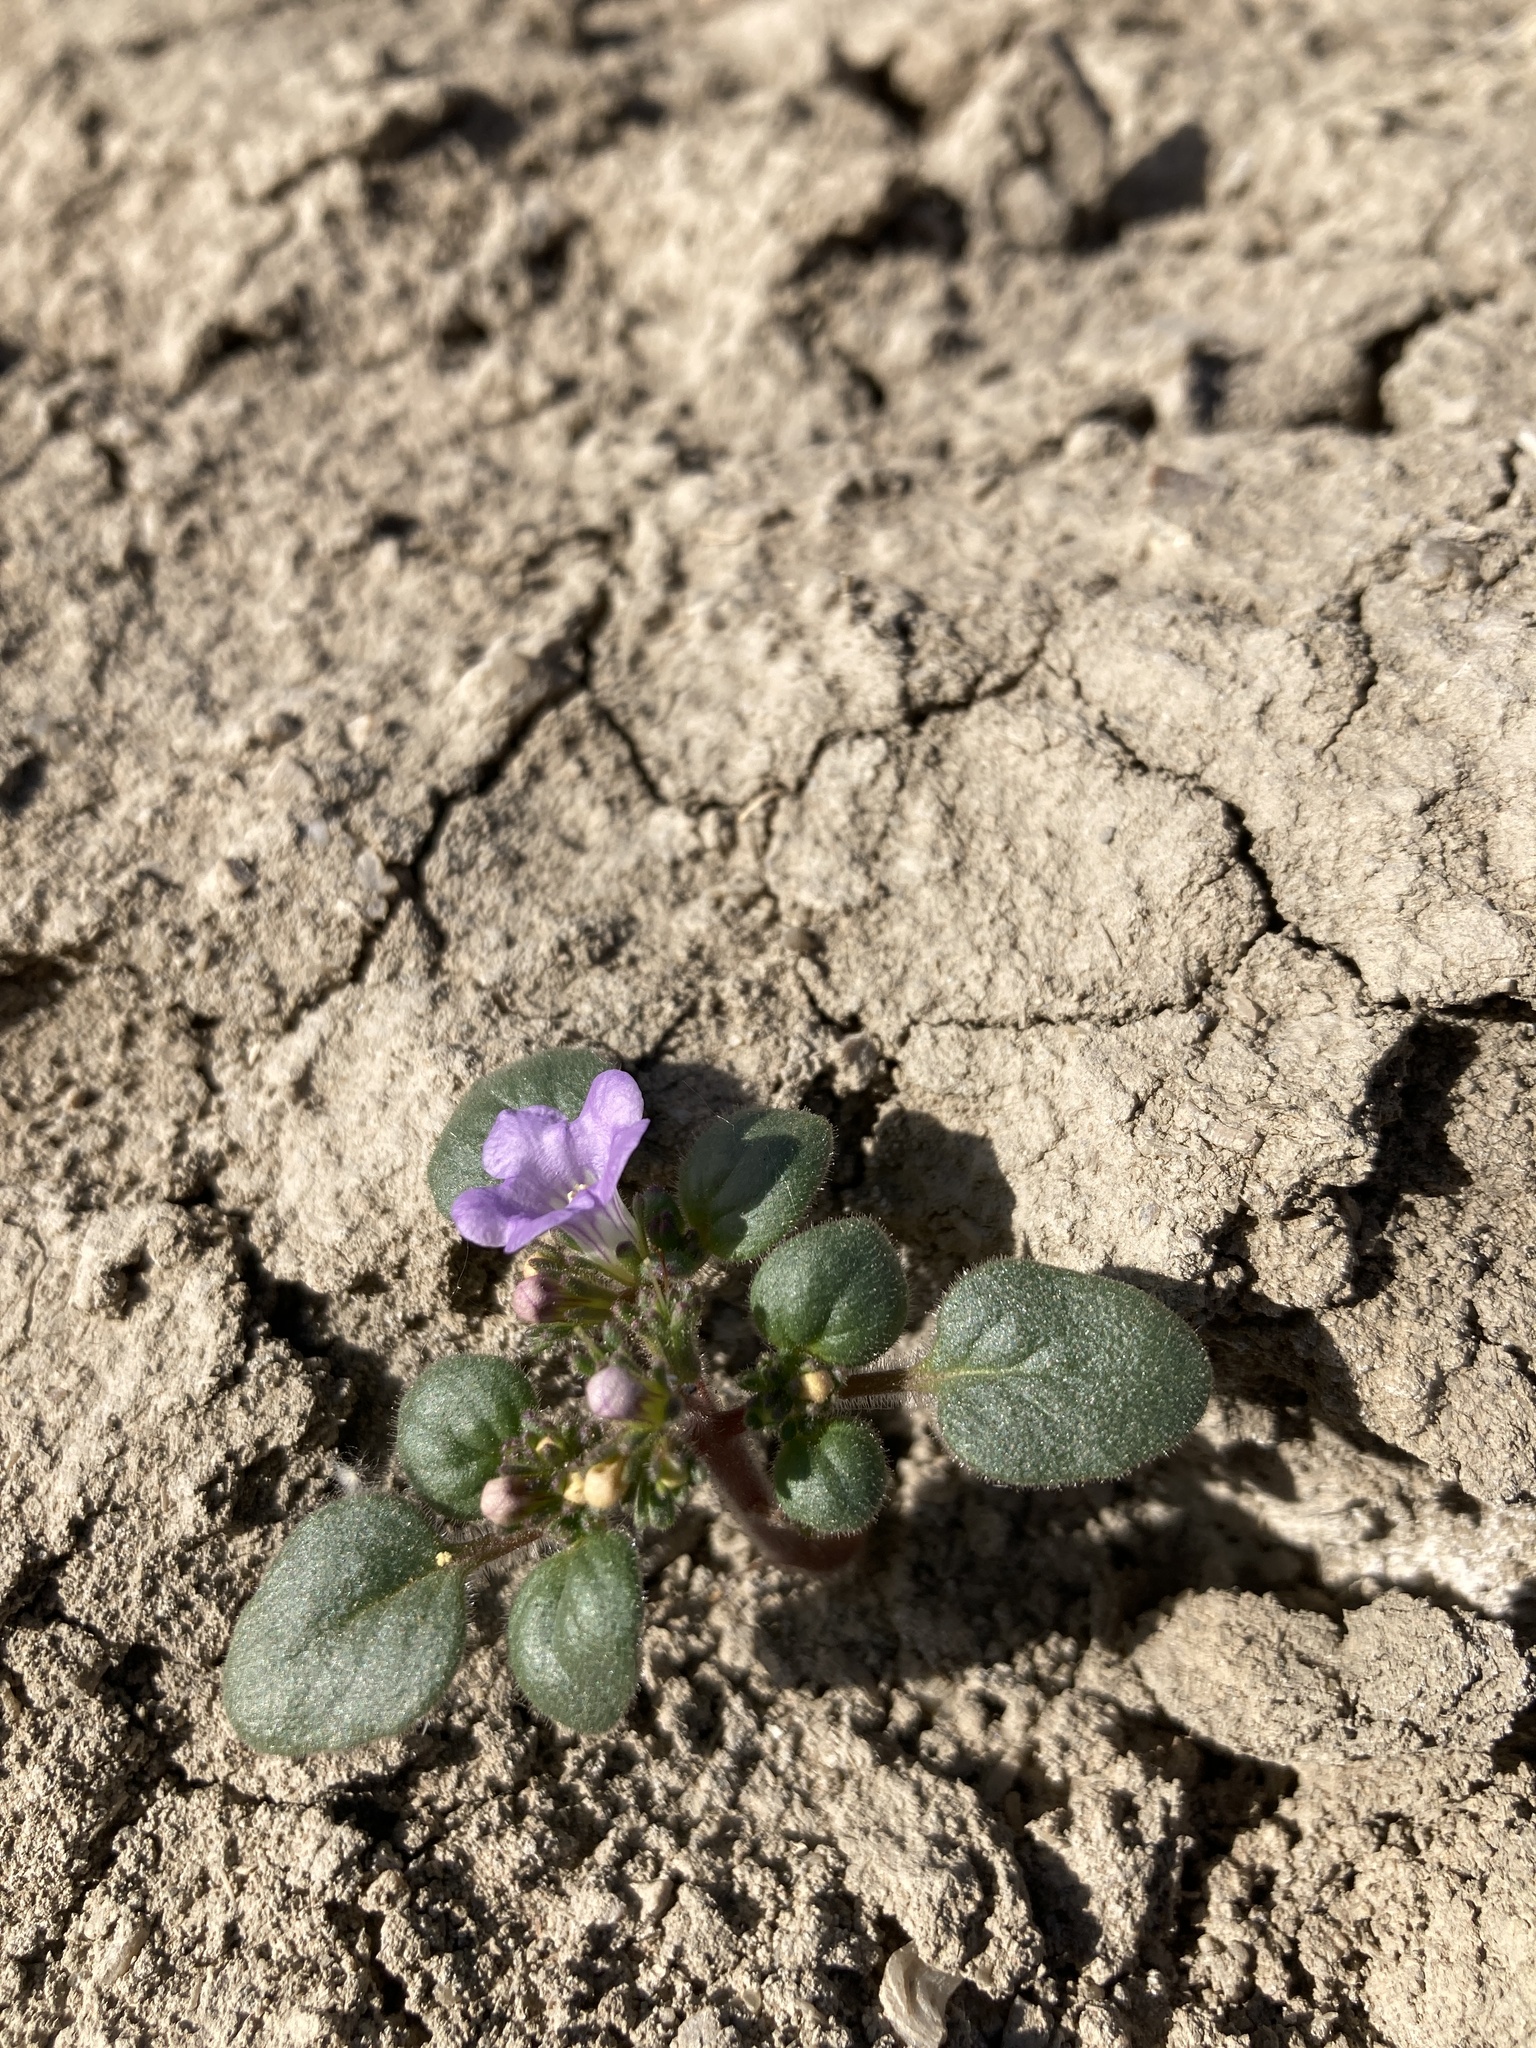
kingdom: Plantae
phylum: Tracheophyta
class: Magnoliopsida
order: Boraginales
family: Hydrophyllaceae
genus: Phacelia
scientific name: Phacelia demissa
